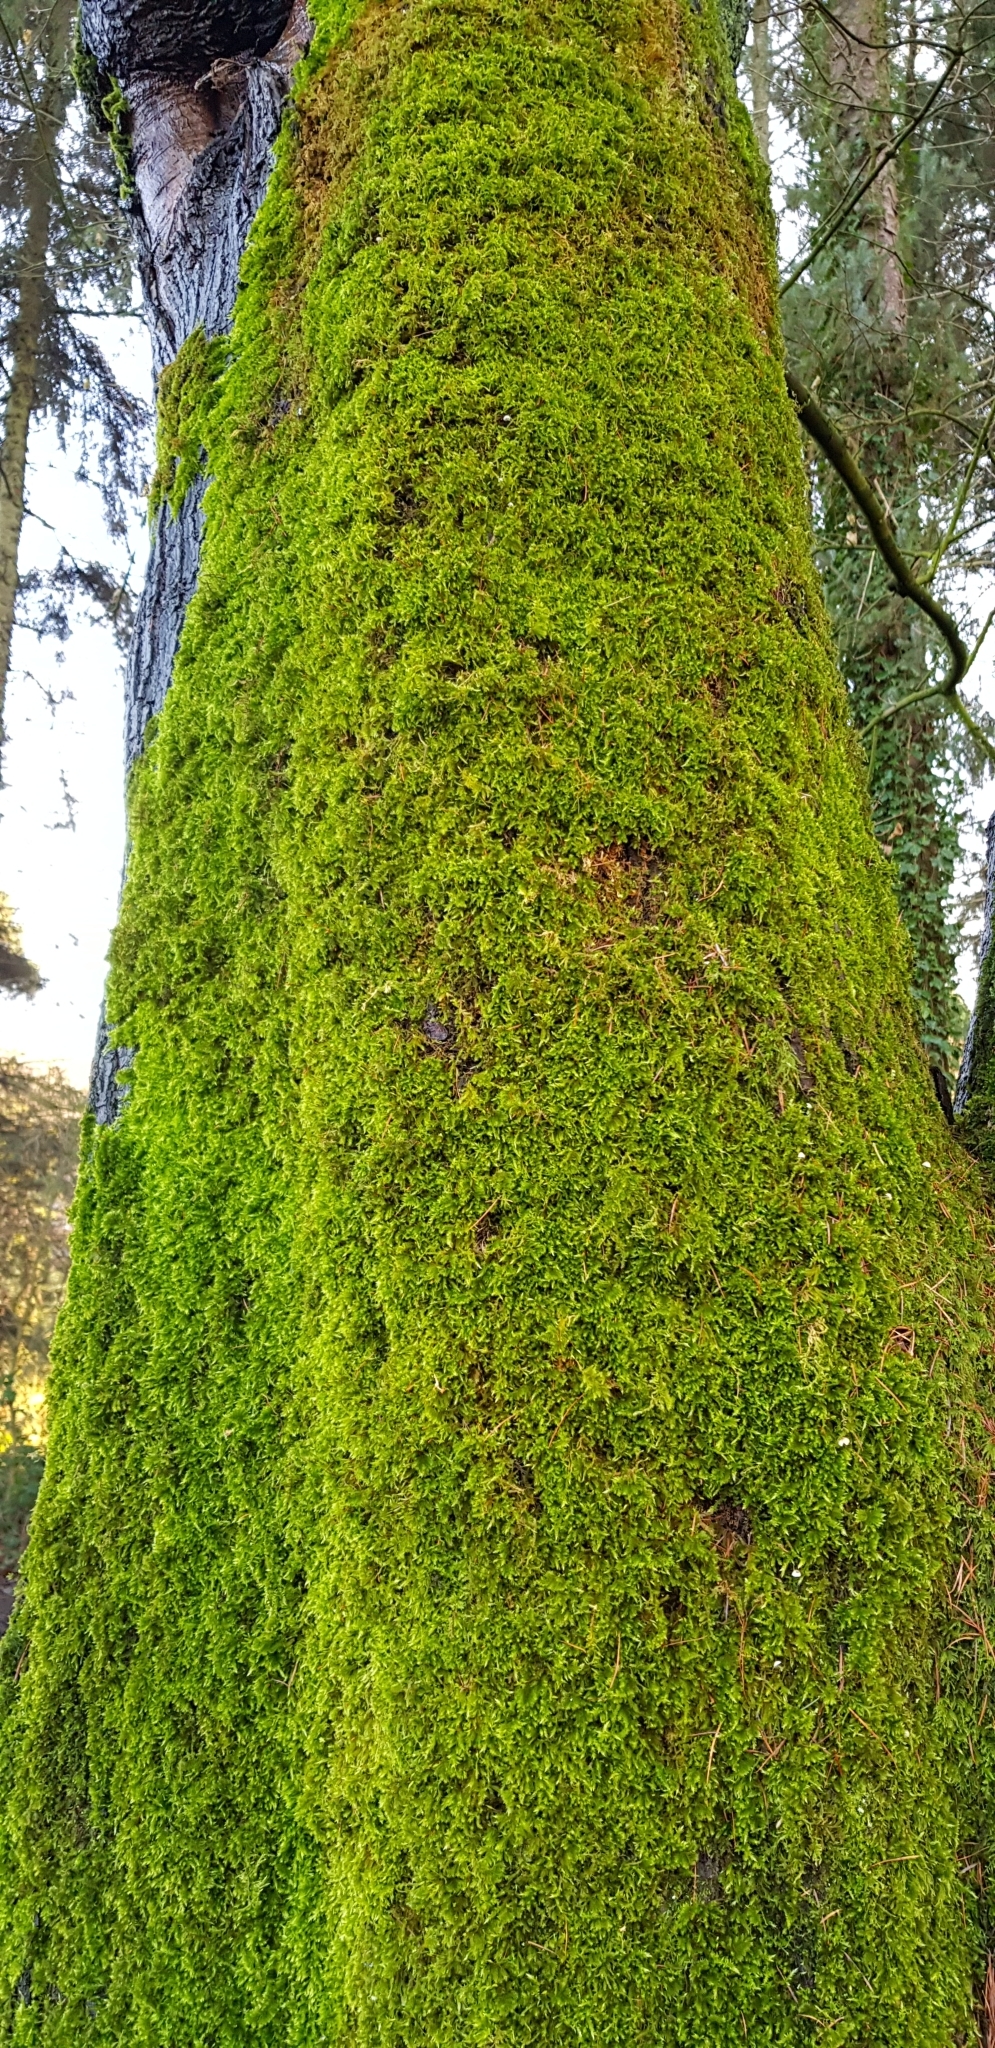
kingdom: Plantae
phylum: Bryophyta
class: Bryopsida
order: Hypnales
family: Brachytheciaceae
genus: Homalothecium
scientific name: Homalothecium sericeum
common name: Silky wall feather-moss
